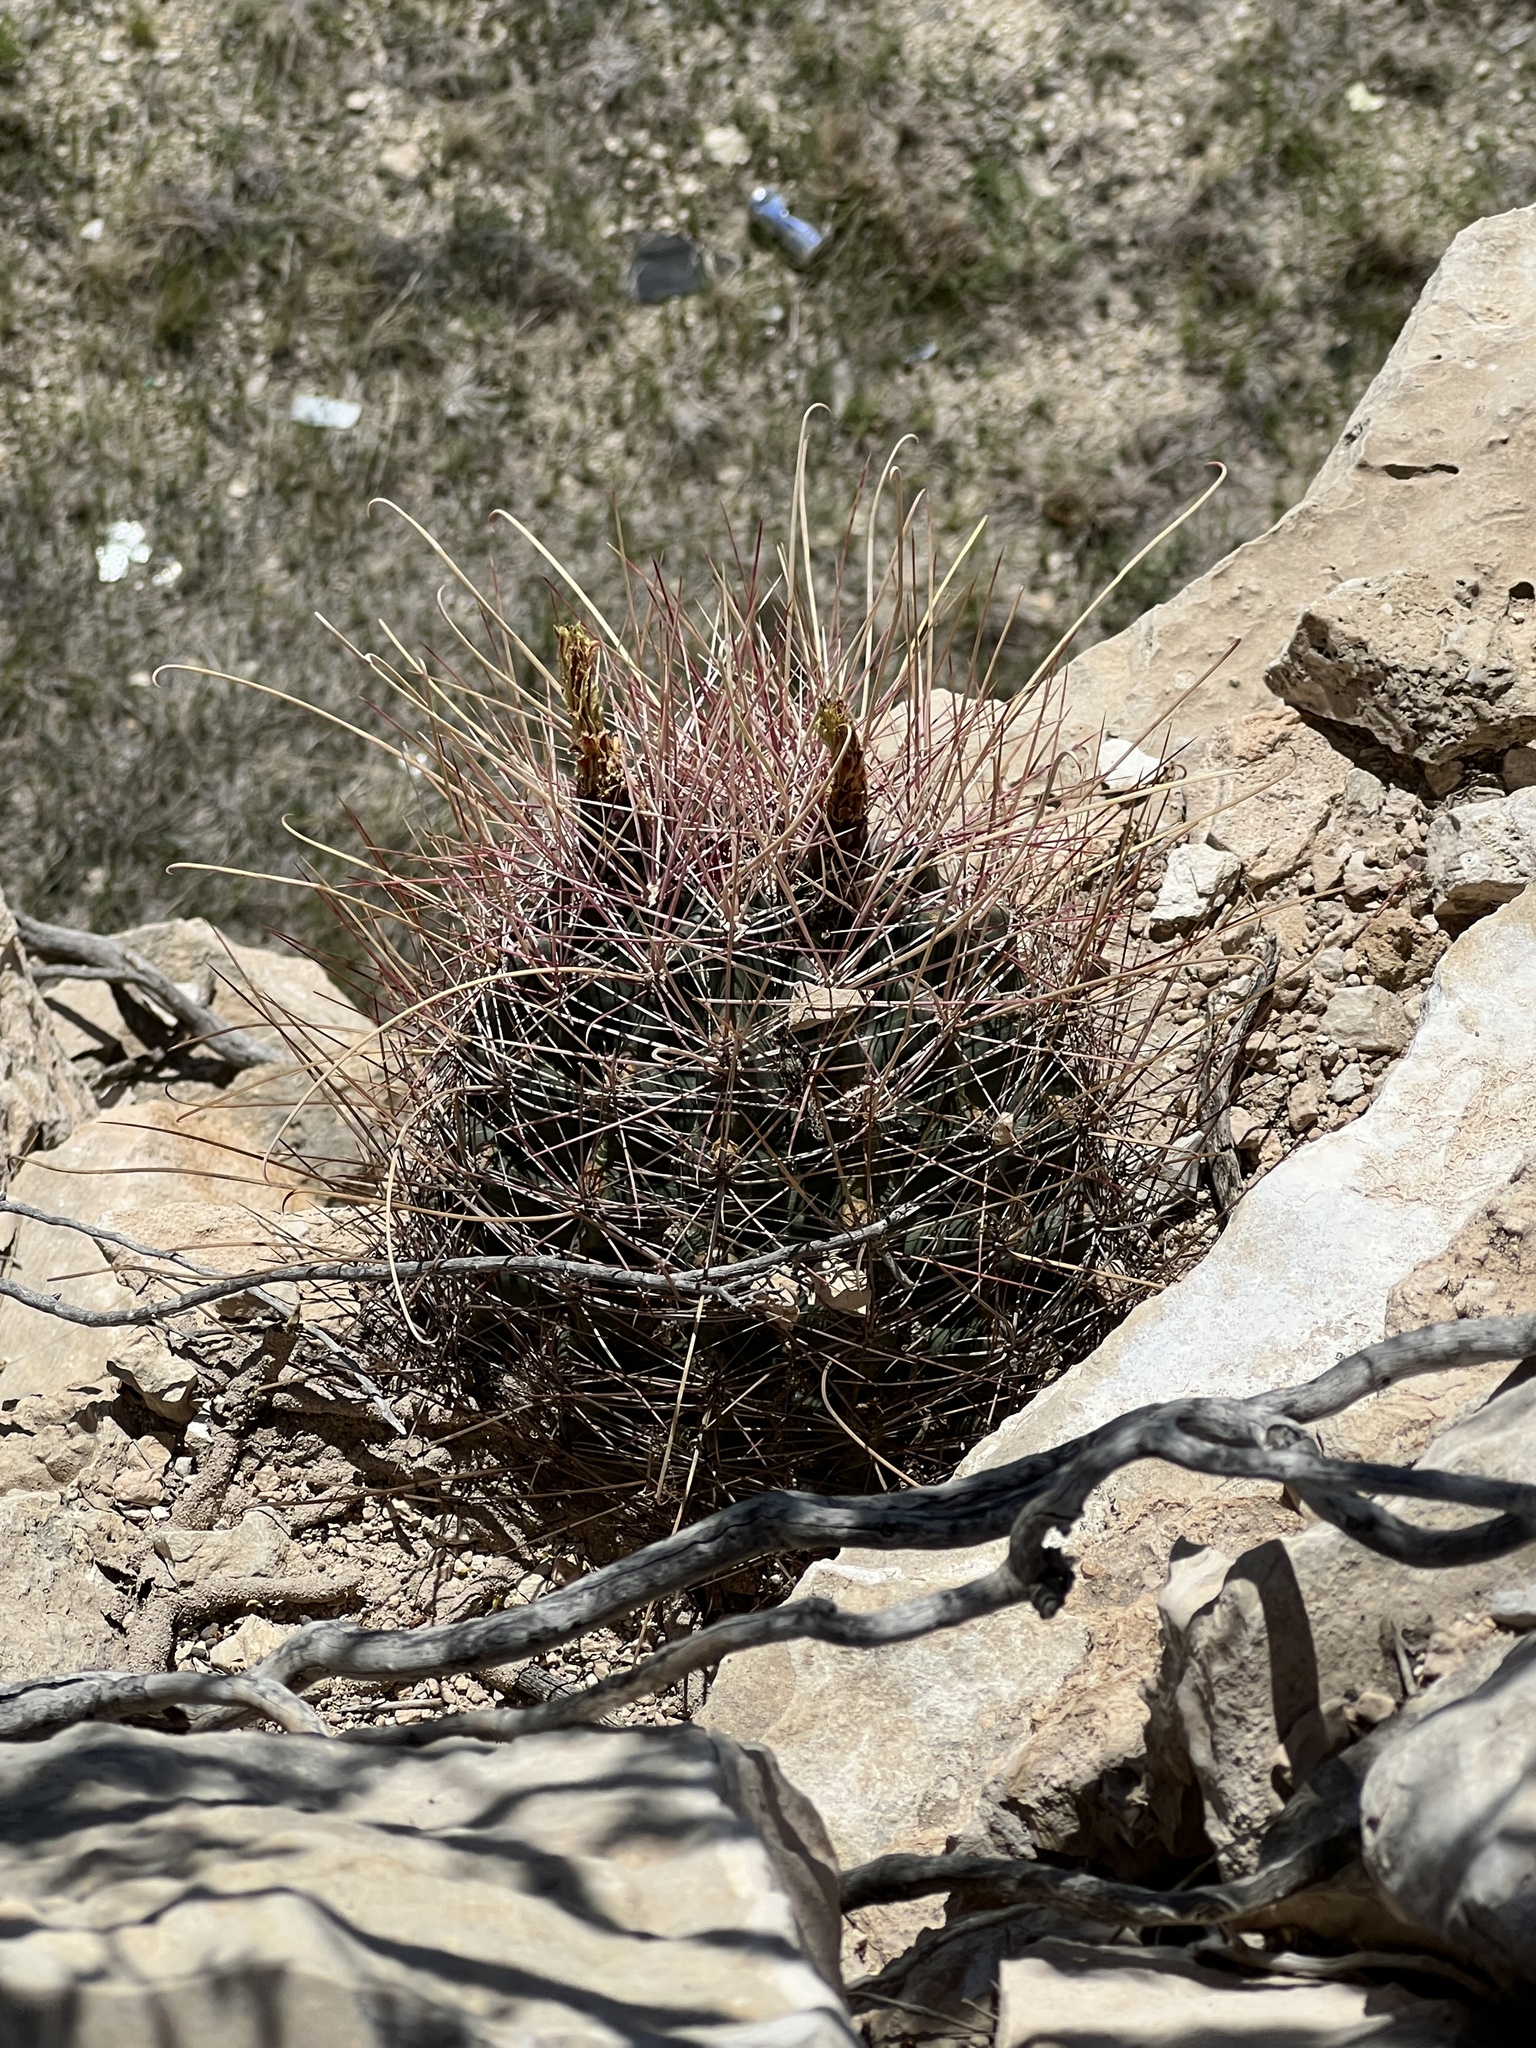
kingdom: Plantae
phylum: Tracheophyta
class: Magnoliopsida
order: Caryophyllales
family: Cactaceae
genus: Bisnaga
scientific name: Bisnaga hamatacantha
